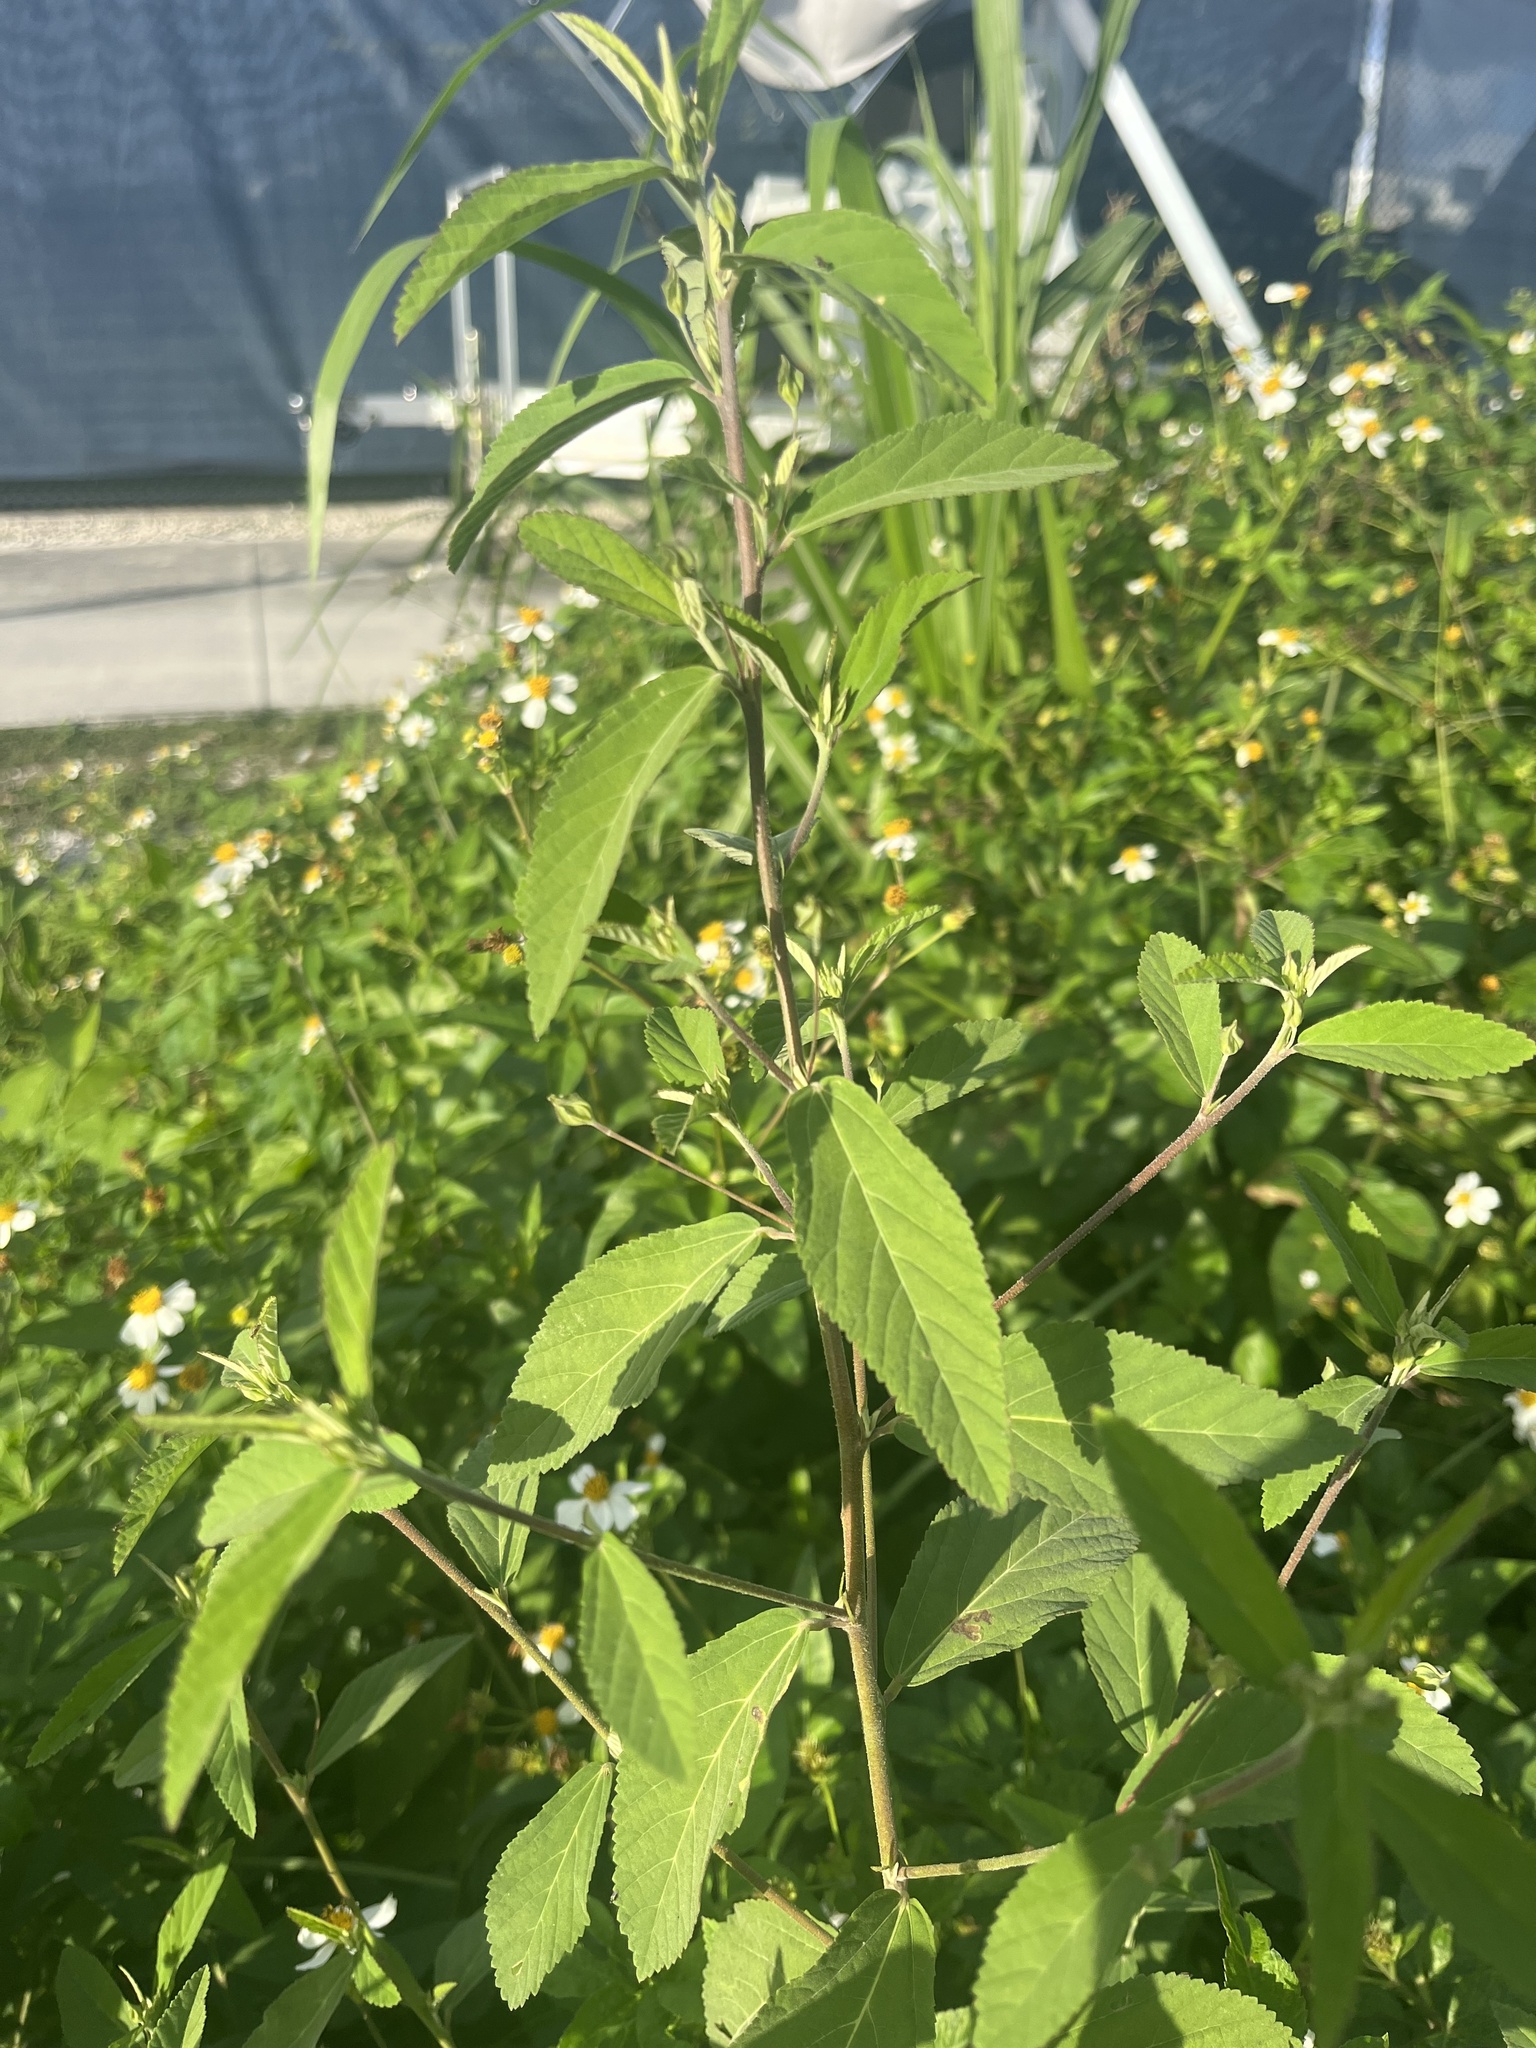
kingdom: Plantae
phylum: Tracheophyta
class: Magnoliopsida
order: Malvales
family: Malvaceae
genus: Sida
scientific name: Sida rhombifolia
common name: Queensland-hemp
